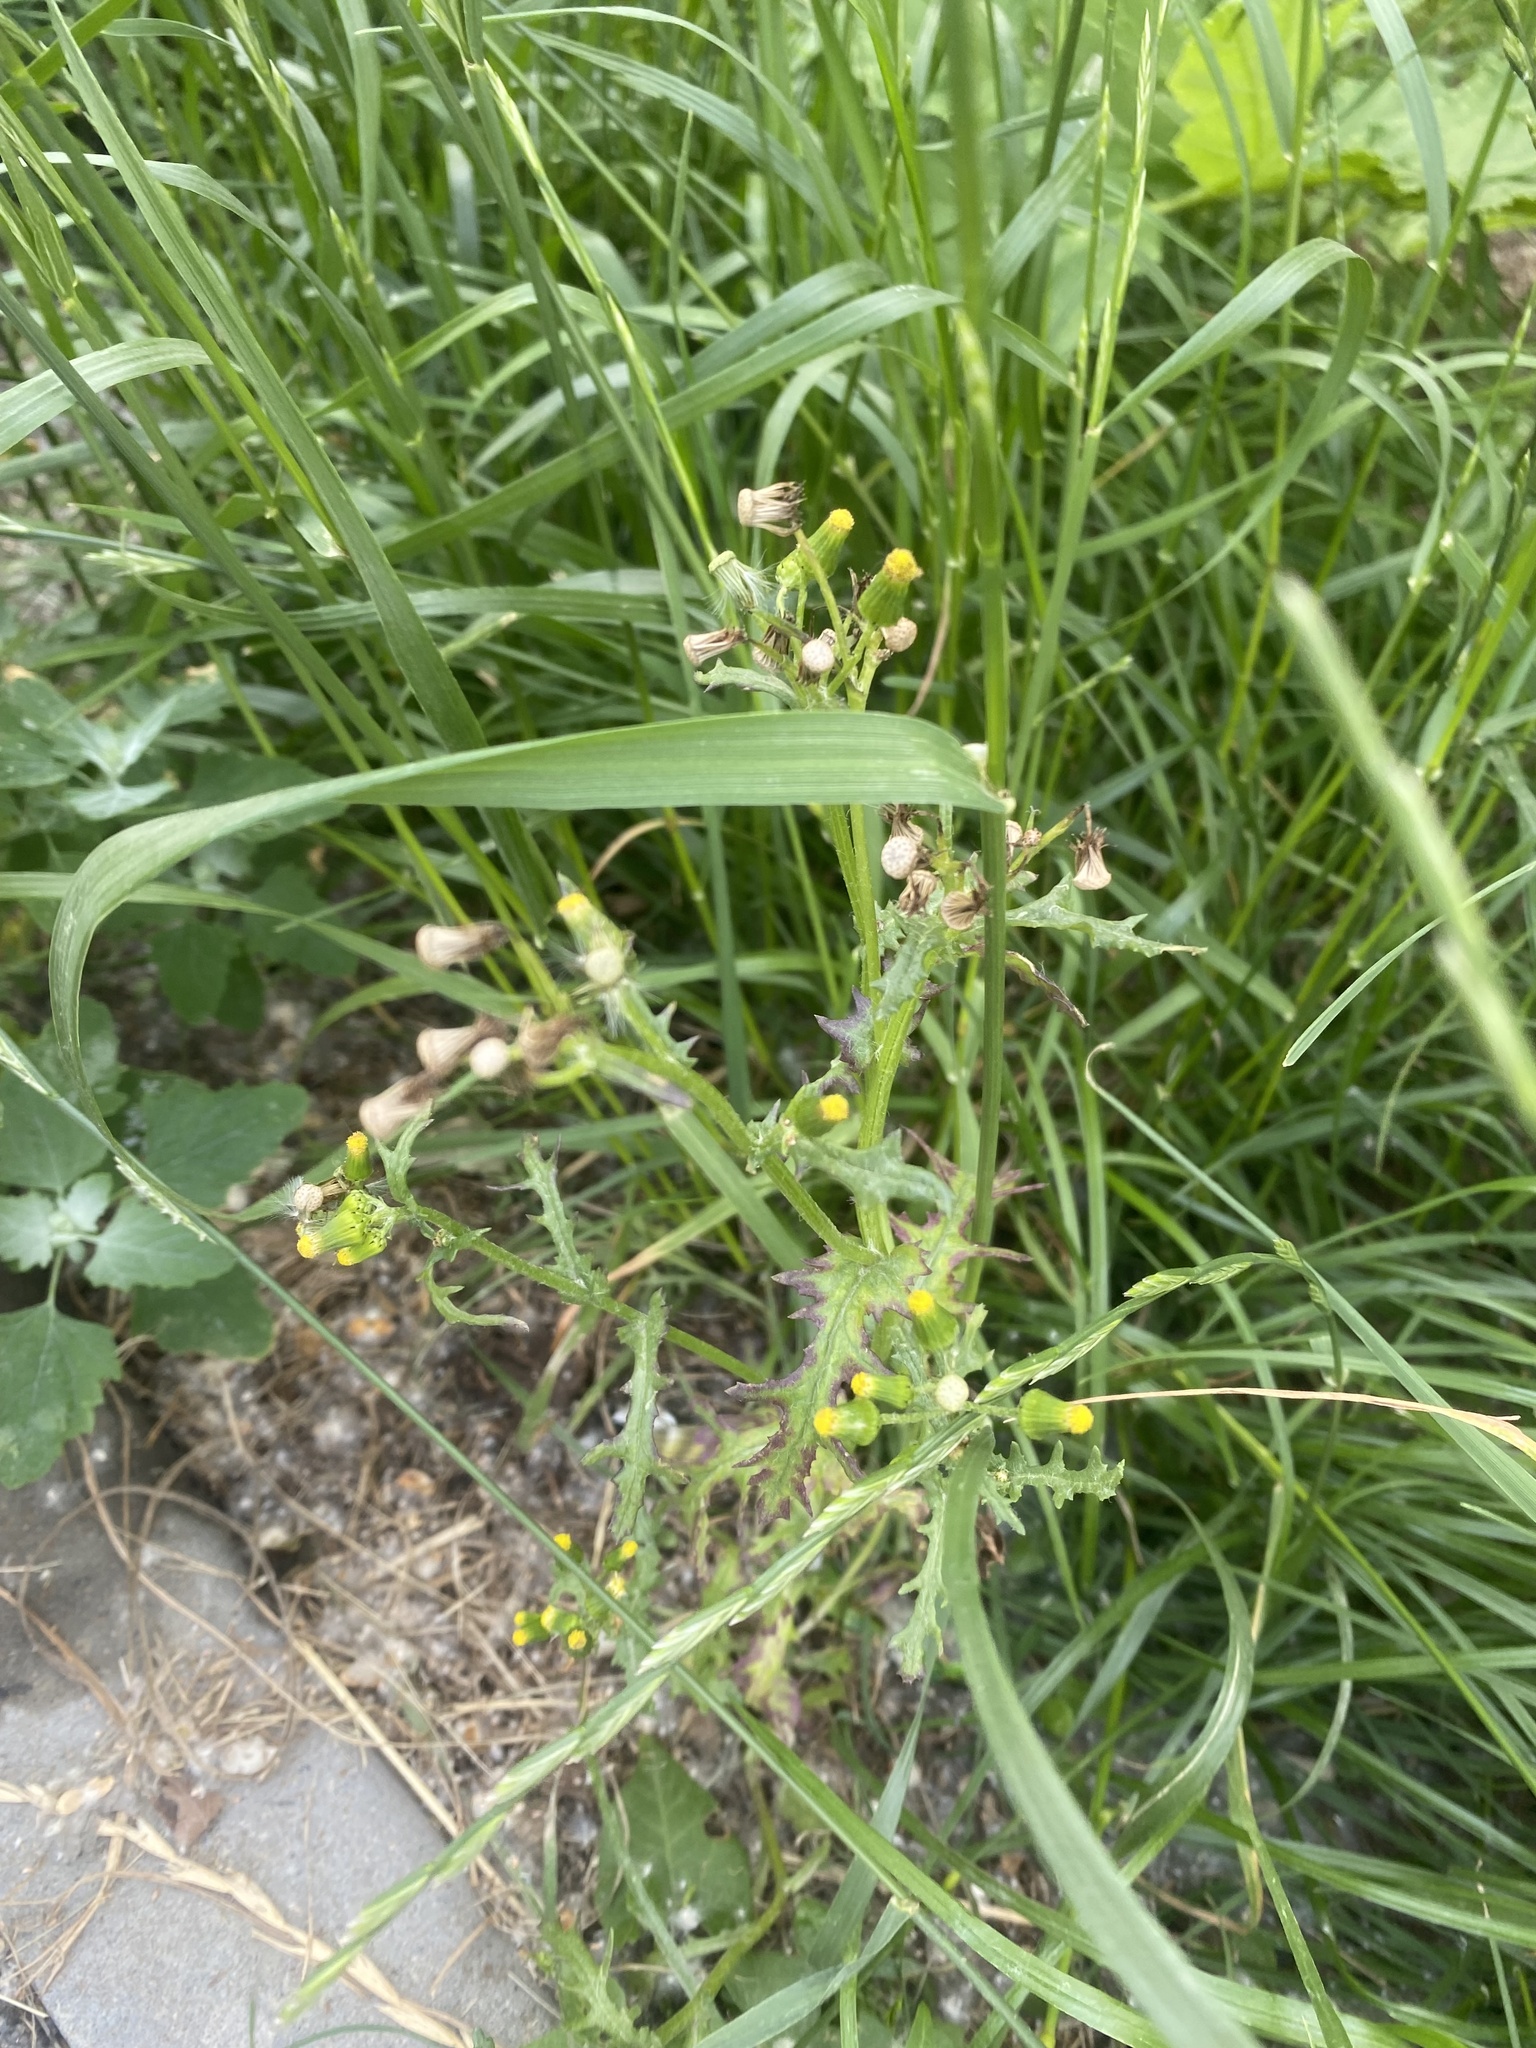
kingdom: Plantae
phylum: Tracheophyta
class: Magnoliopsida
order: Asterales
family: Asteraceae
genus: Senecio
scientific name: Senecio vulgaris
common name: Old-man-in-the-spring
